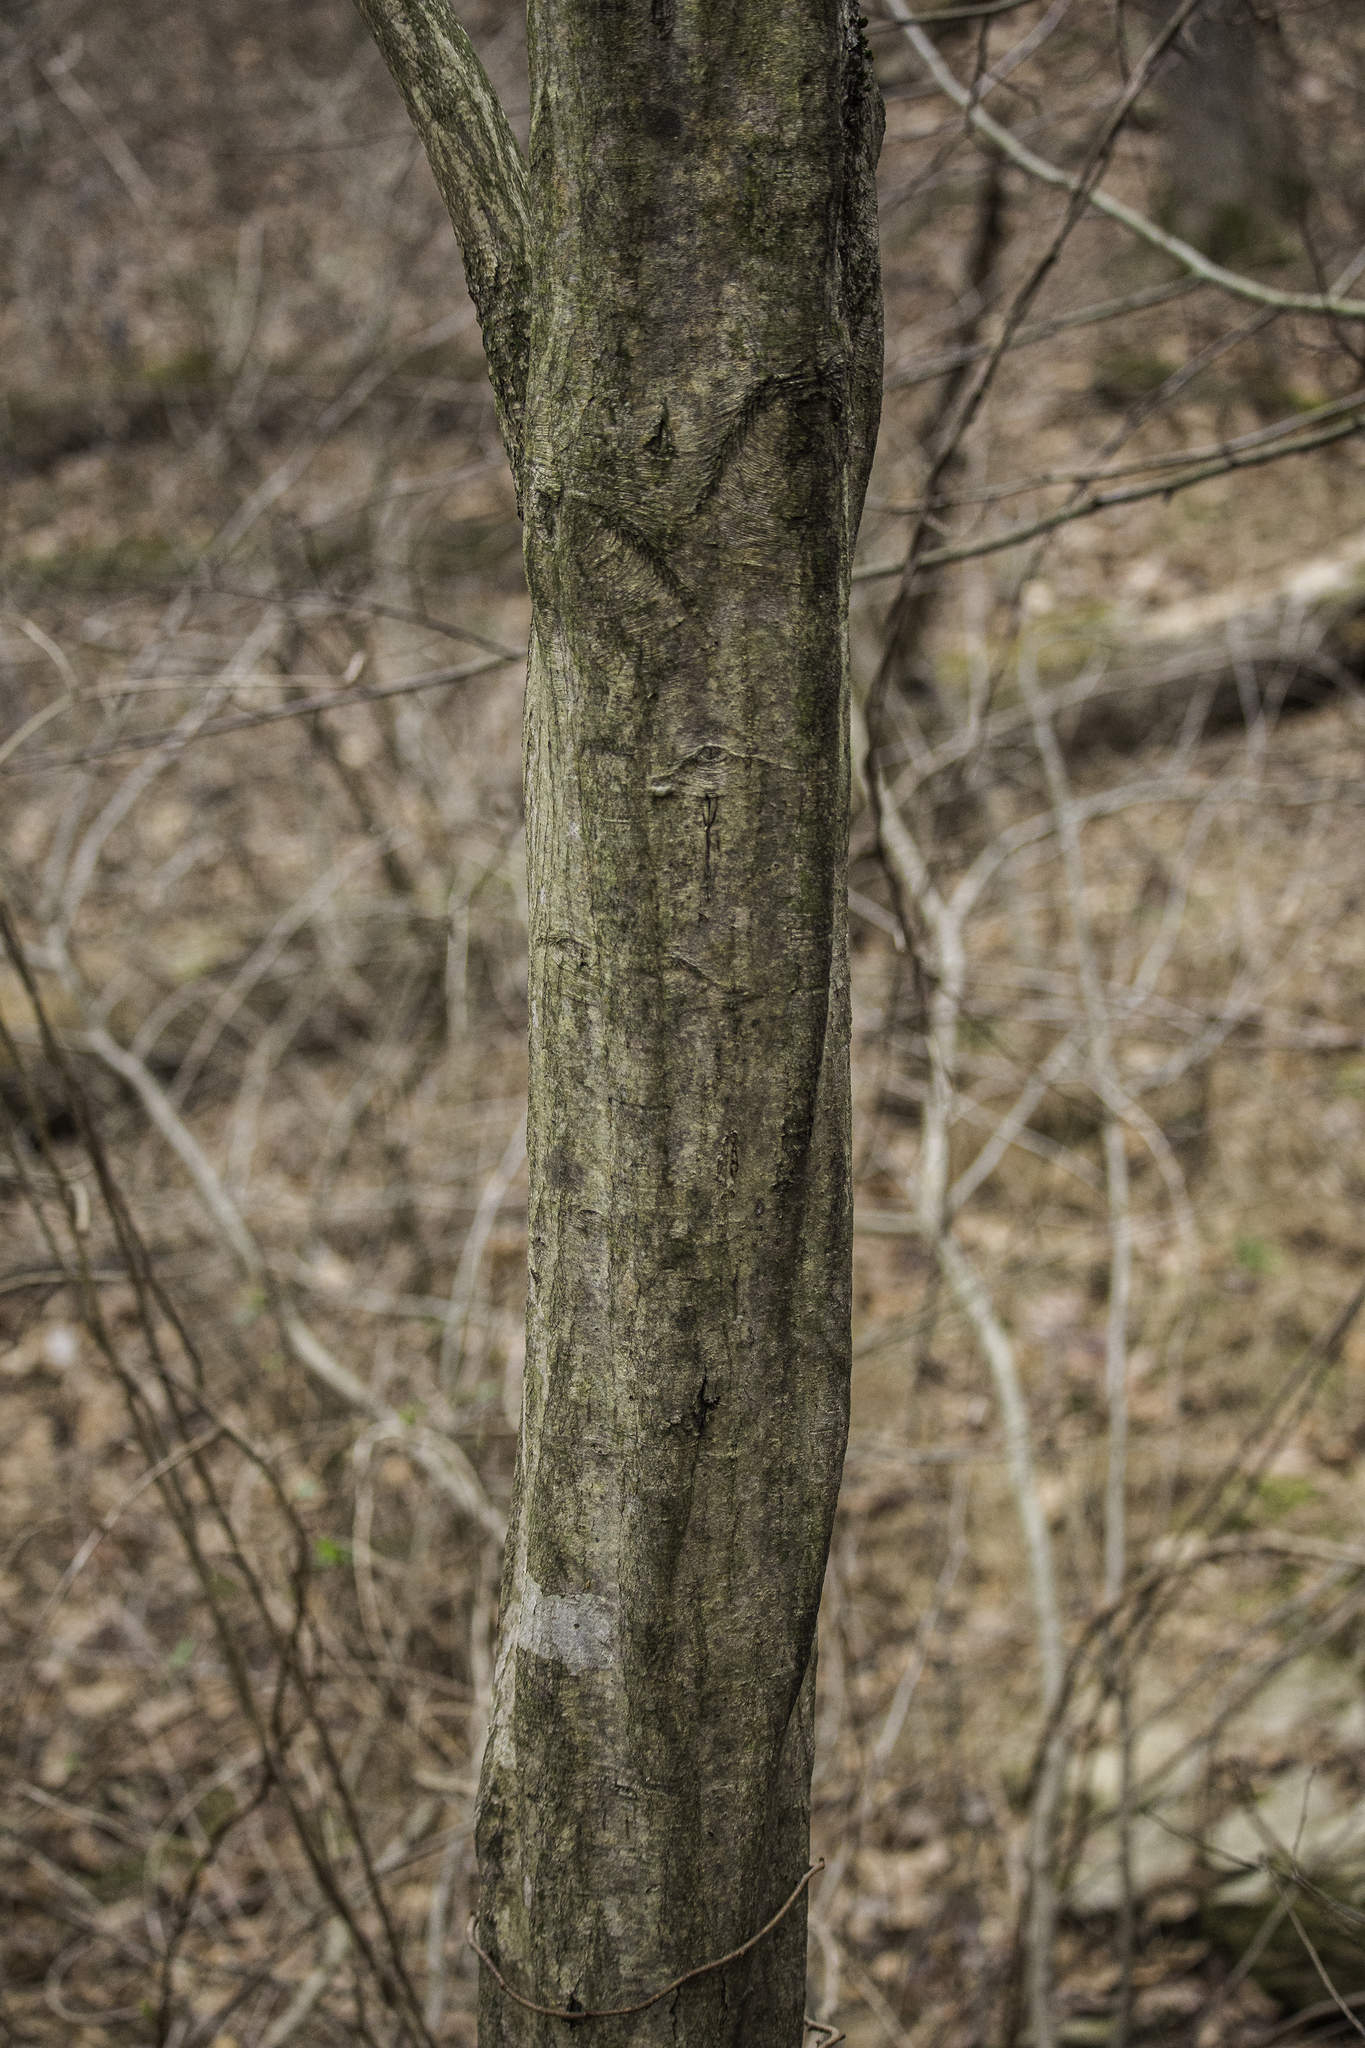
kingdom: Plantae
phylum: Tracheophyta
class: Magnoliopsida
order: Fagales
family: Betulaceae
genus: Carpinus
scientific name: Carpinus caroliniana
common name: American hornbeam
